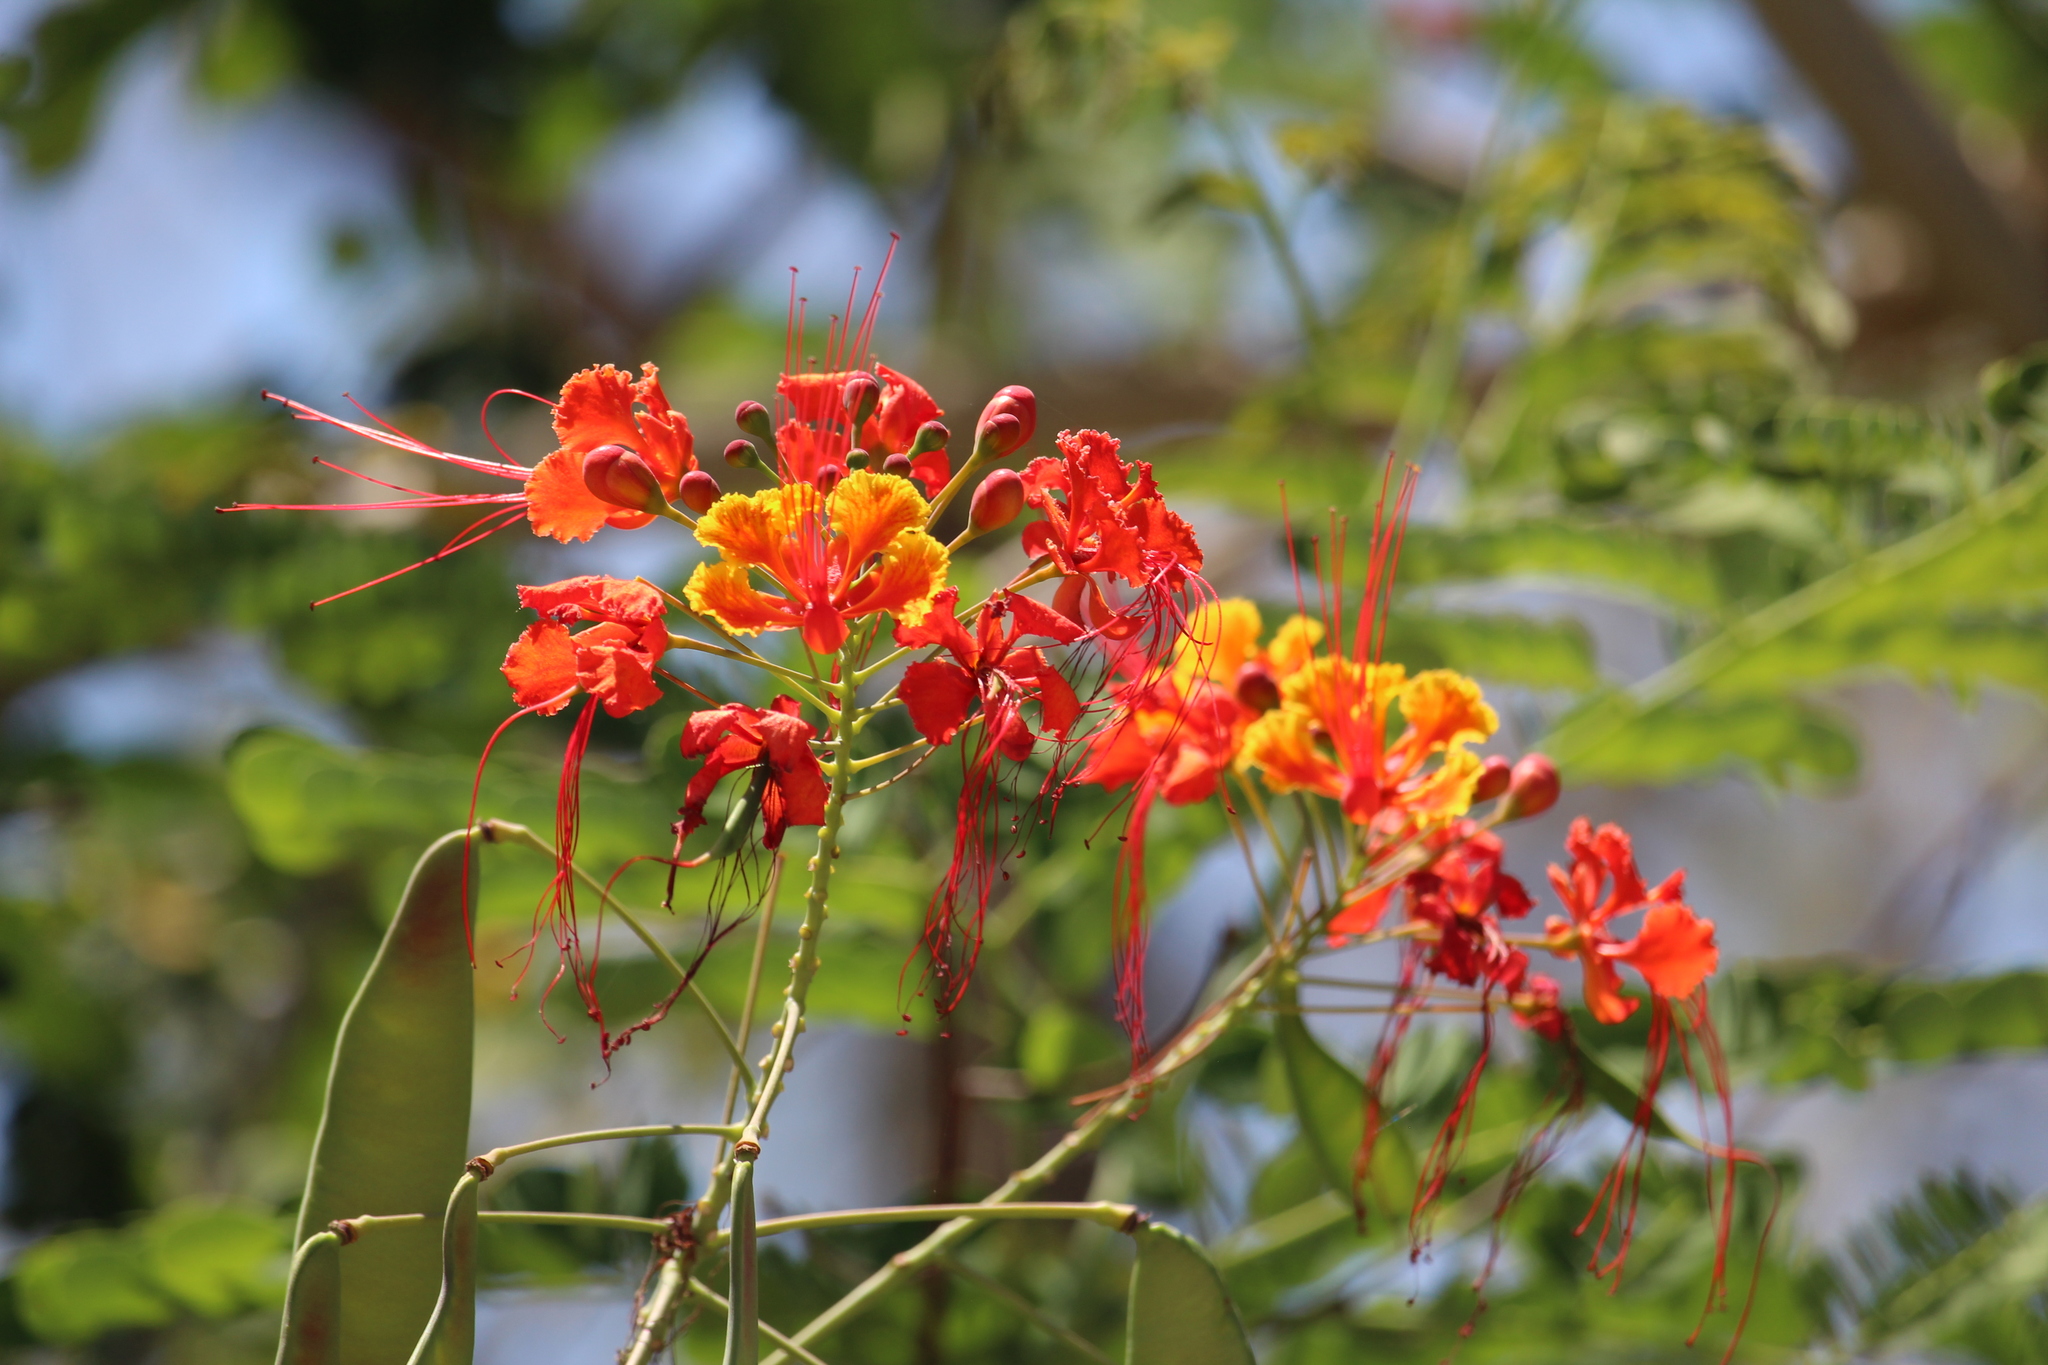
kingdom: Plantae
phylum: Tracheophyta
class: Magnoliopsida
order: Fabales
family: Fabaceae
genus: Caesalpinia
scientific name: Caesalpinia pulcherrima
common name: Pride-of-barbados
